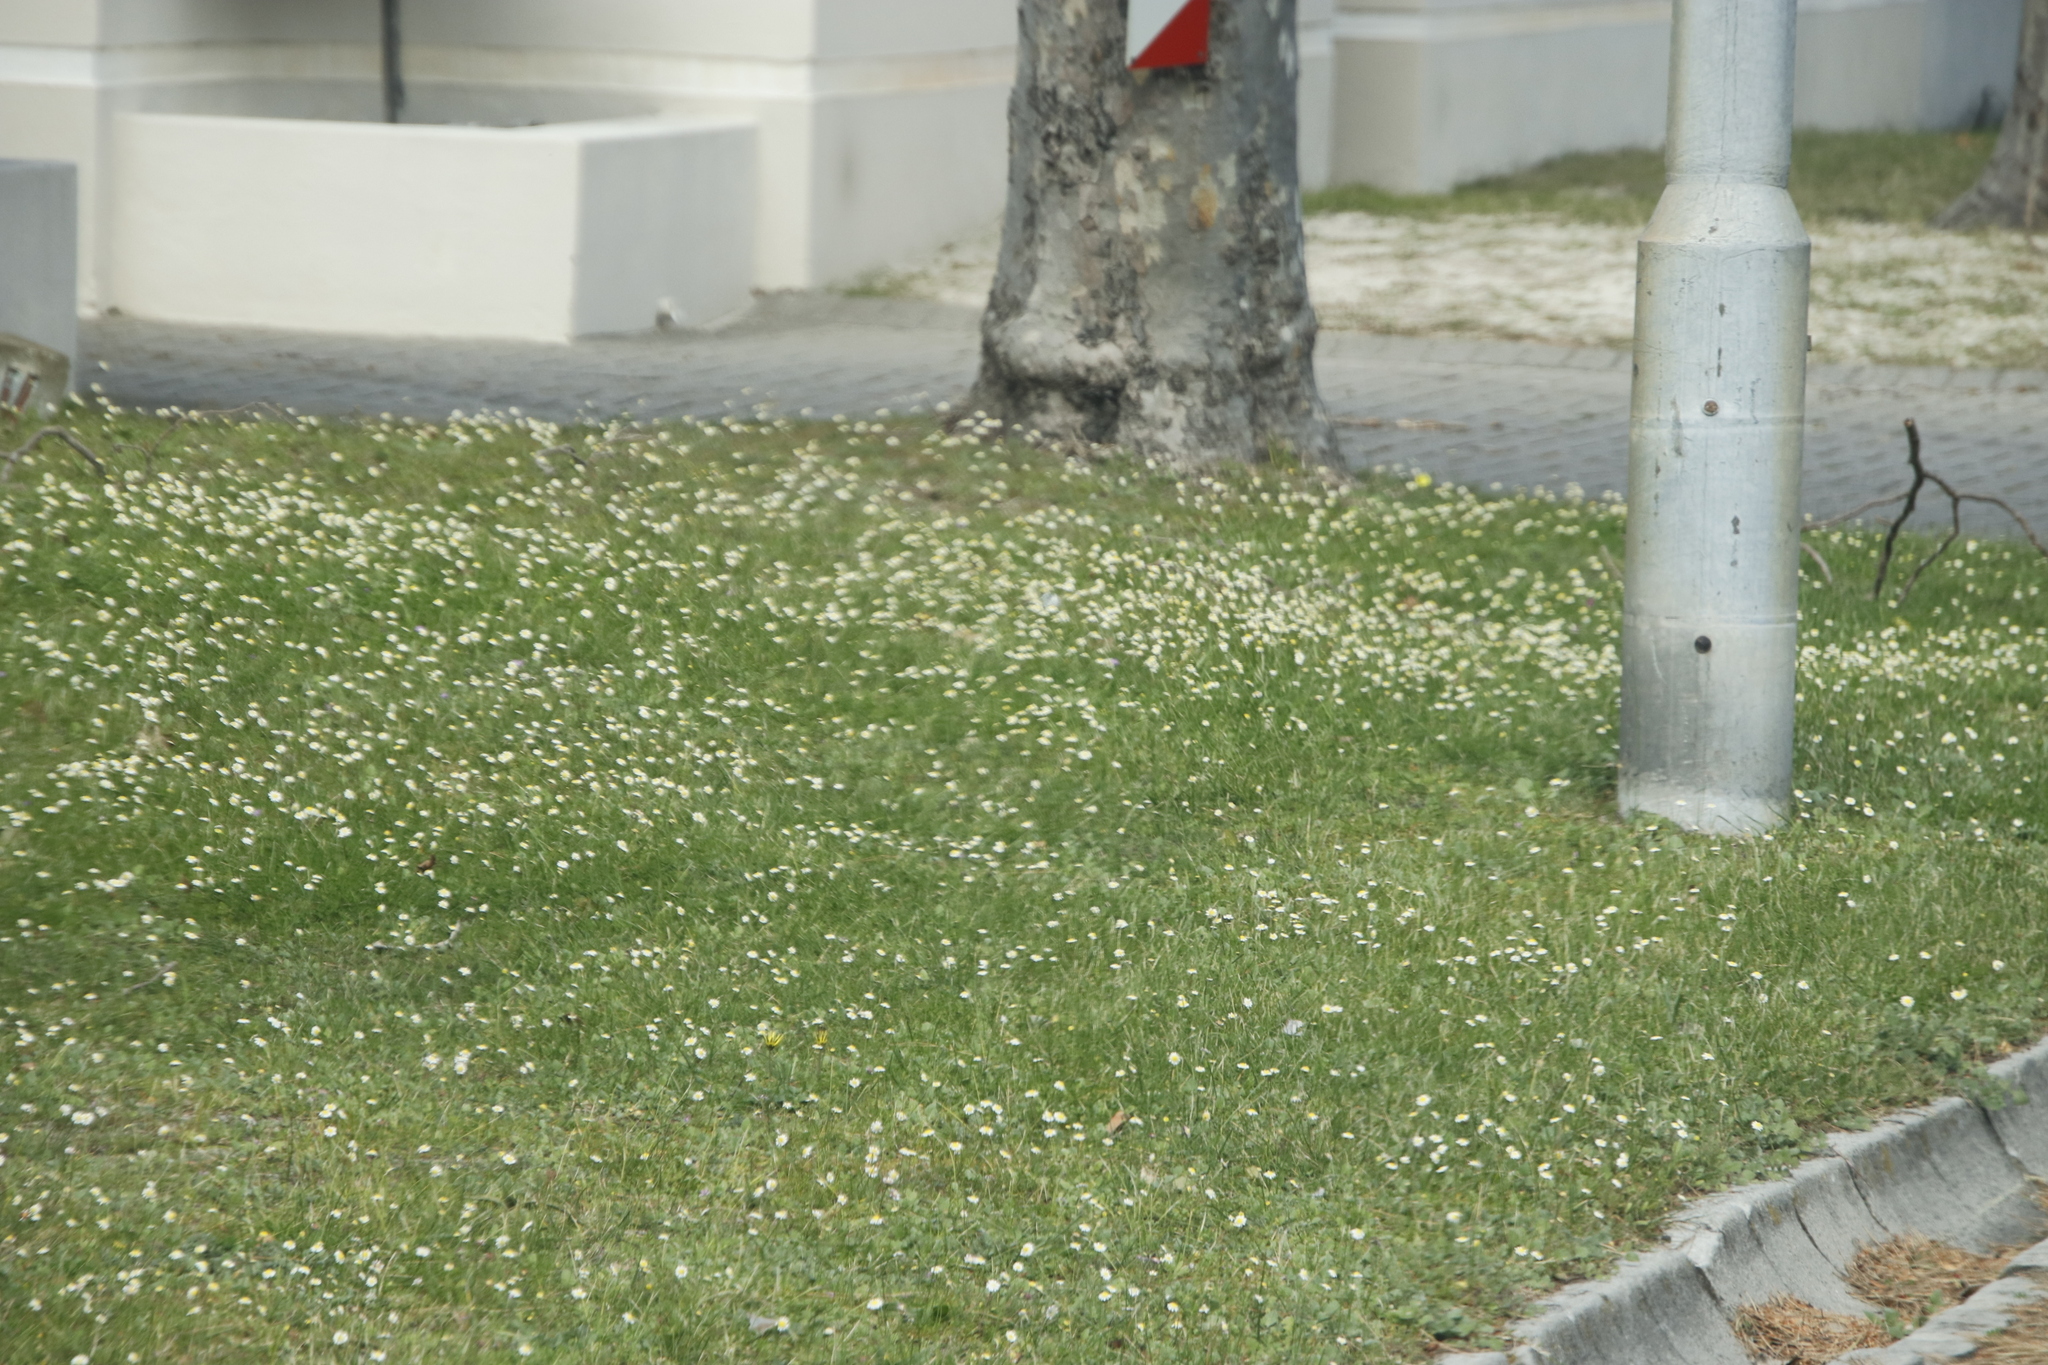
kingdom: Plantae
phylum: Tracheophyta
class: Magnoliopsida
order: Asterales
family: Asteraceae
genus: Cotula
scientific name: Cotula turbinata
